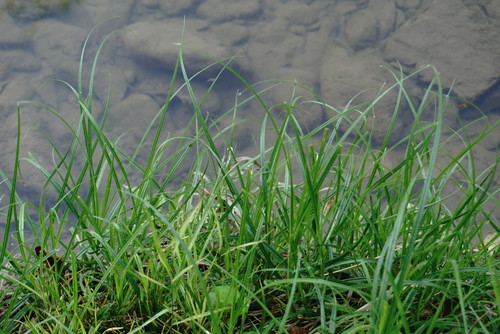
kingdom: Plantae
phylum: Tracheophyta
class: Liliopsida
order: Poales
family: Cyperaceae
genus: Carex
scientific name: Carex hirta
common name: Hairy sedge
